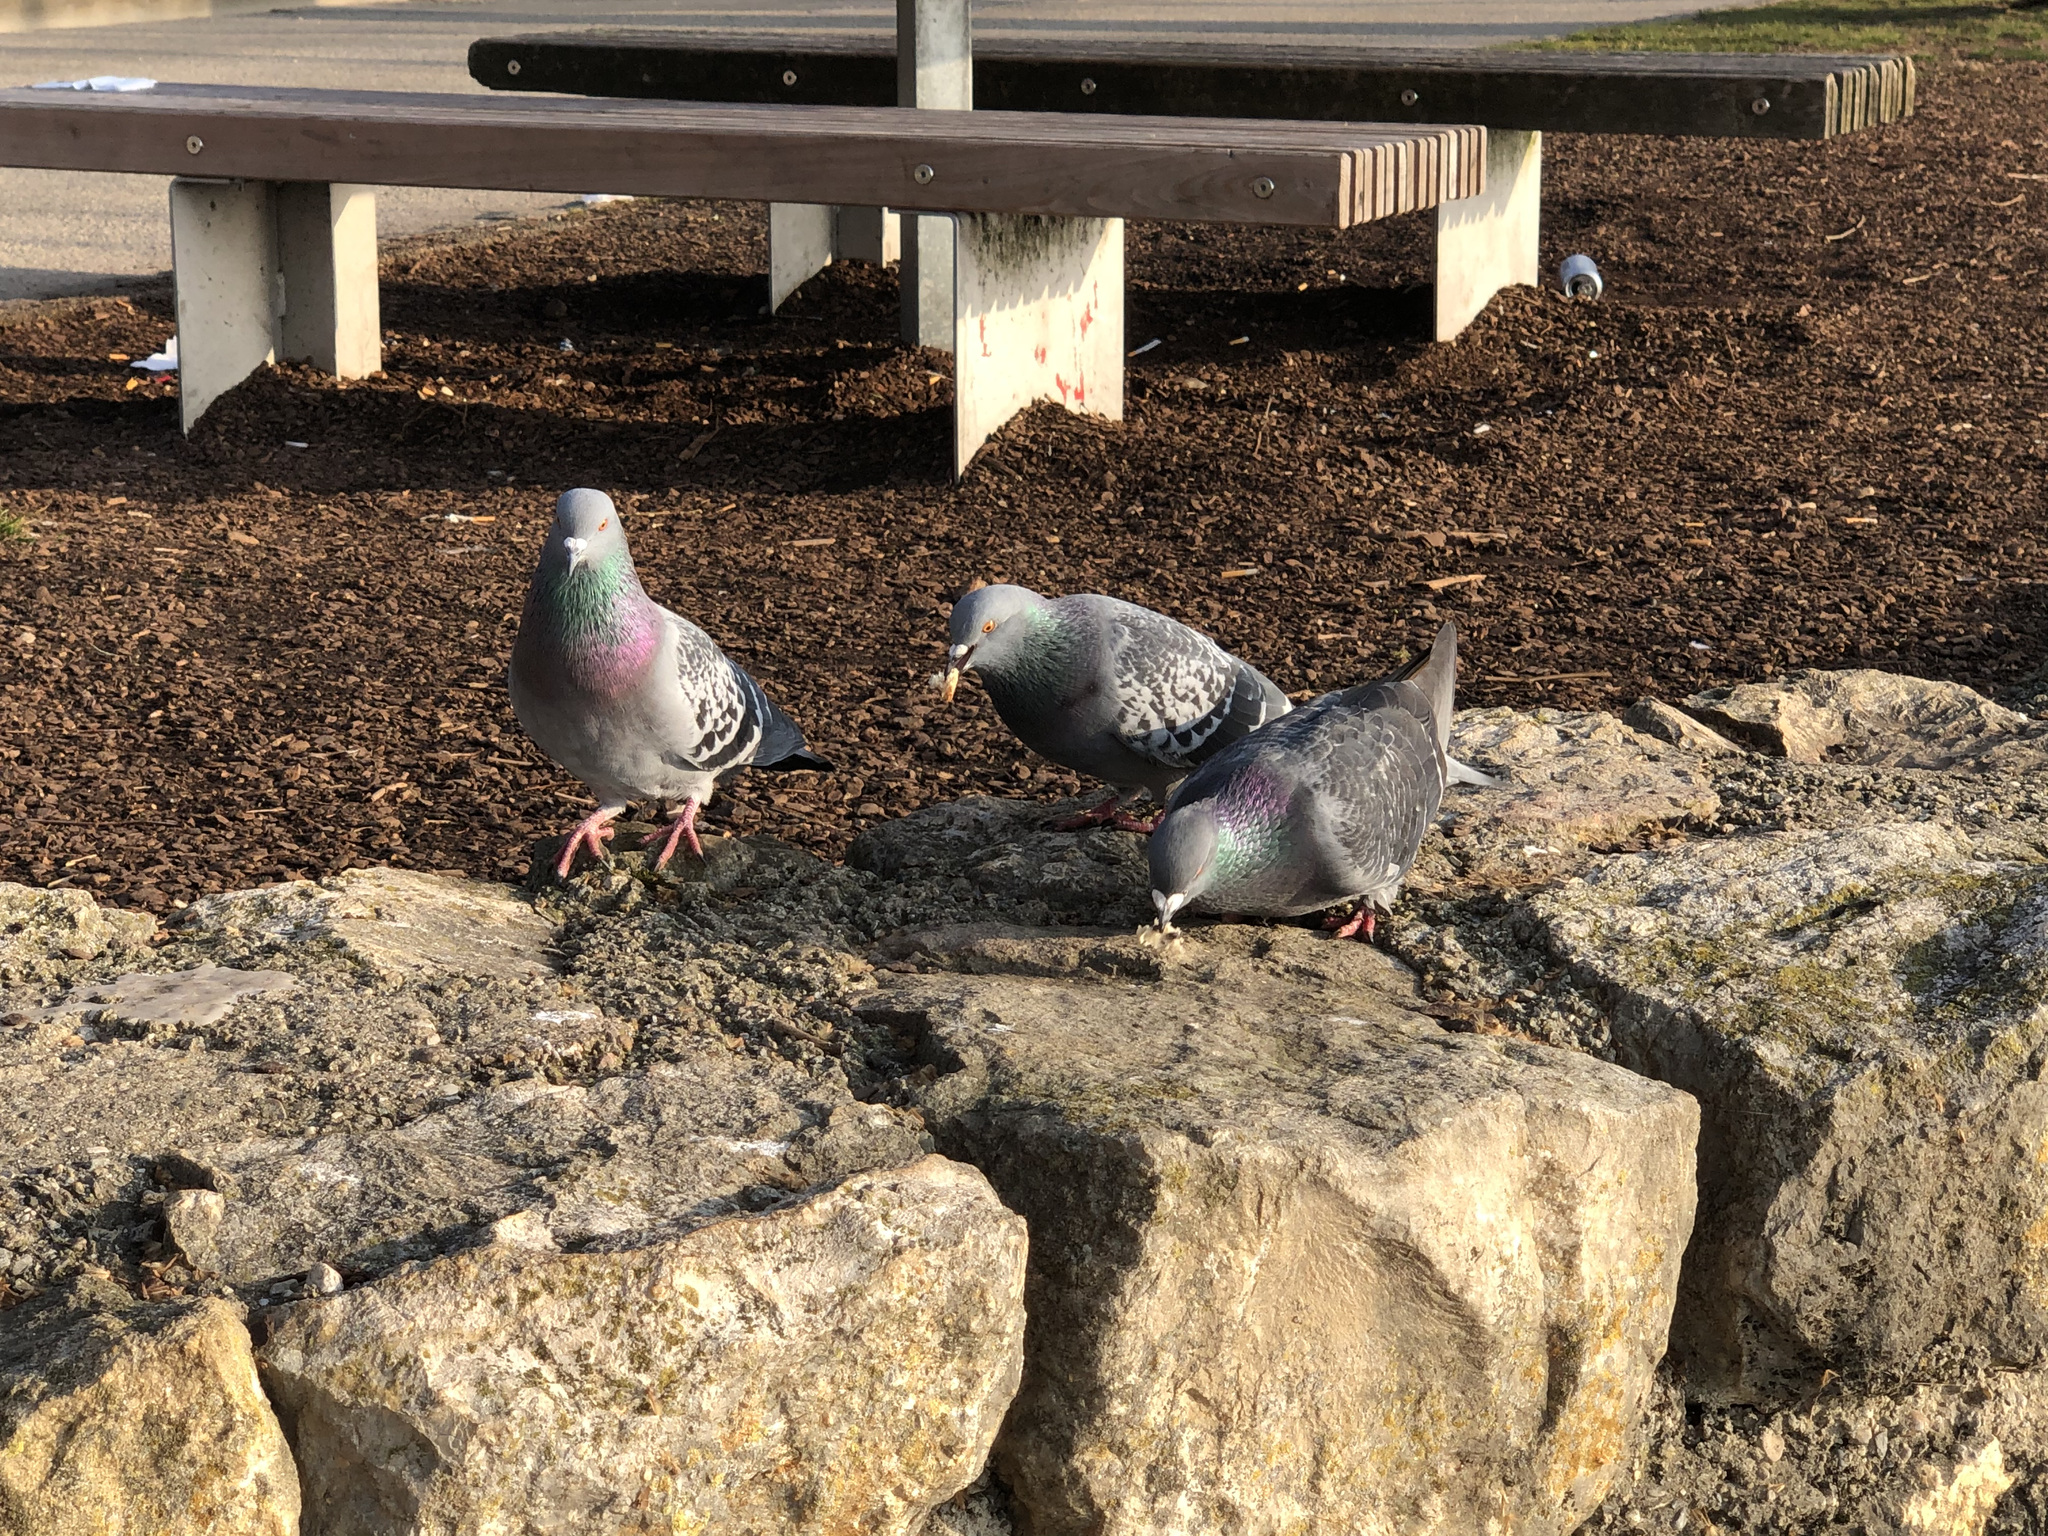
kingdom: Animalia
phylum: Chordata
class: Aves
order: Columbiformes
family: Columbidae
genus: Columba
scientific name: Columba livia
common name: Rock pigeon
